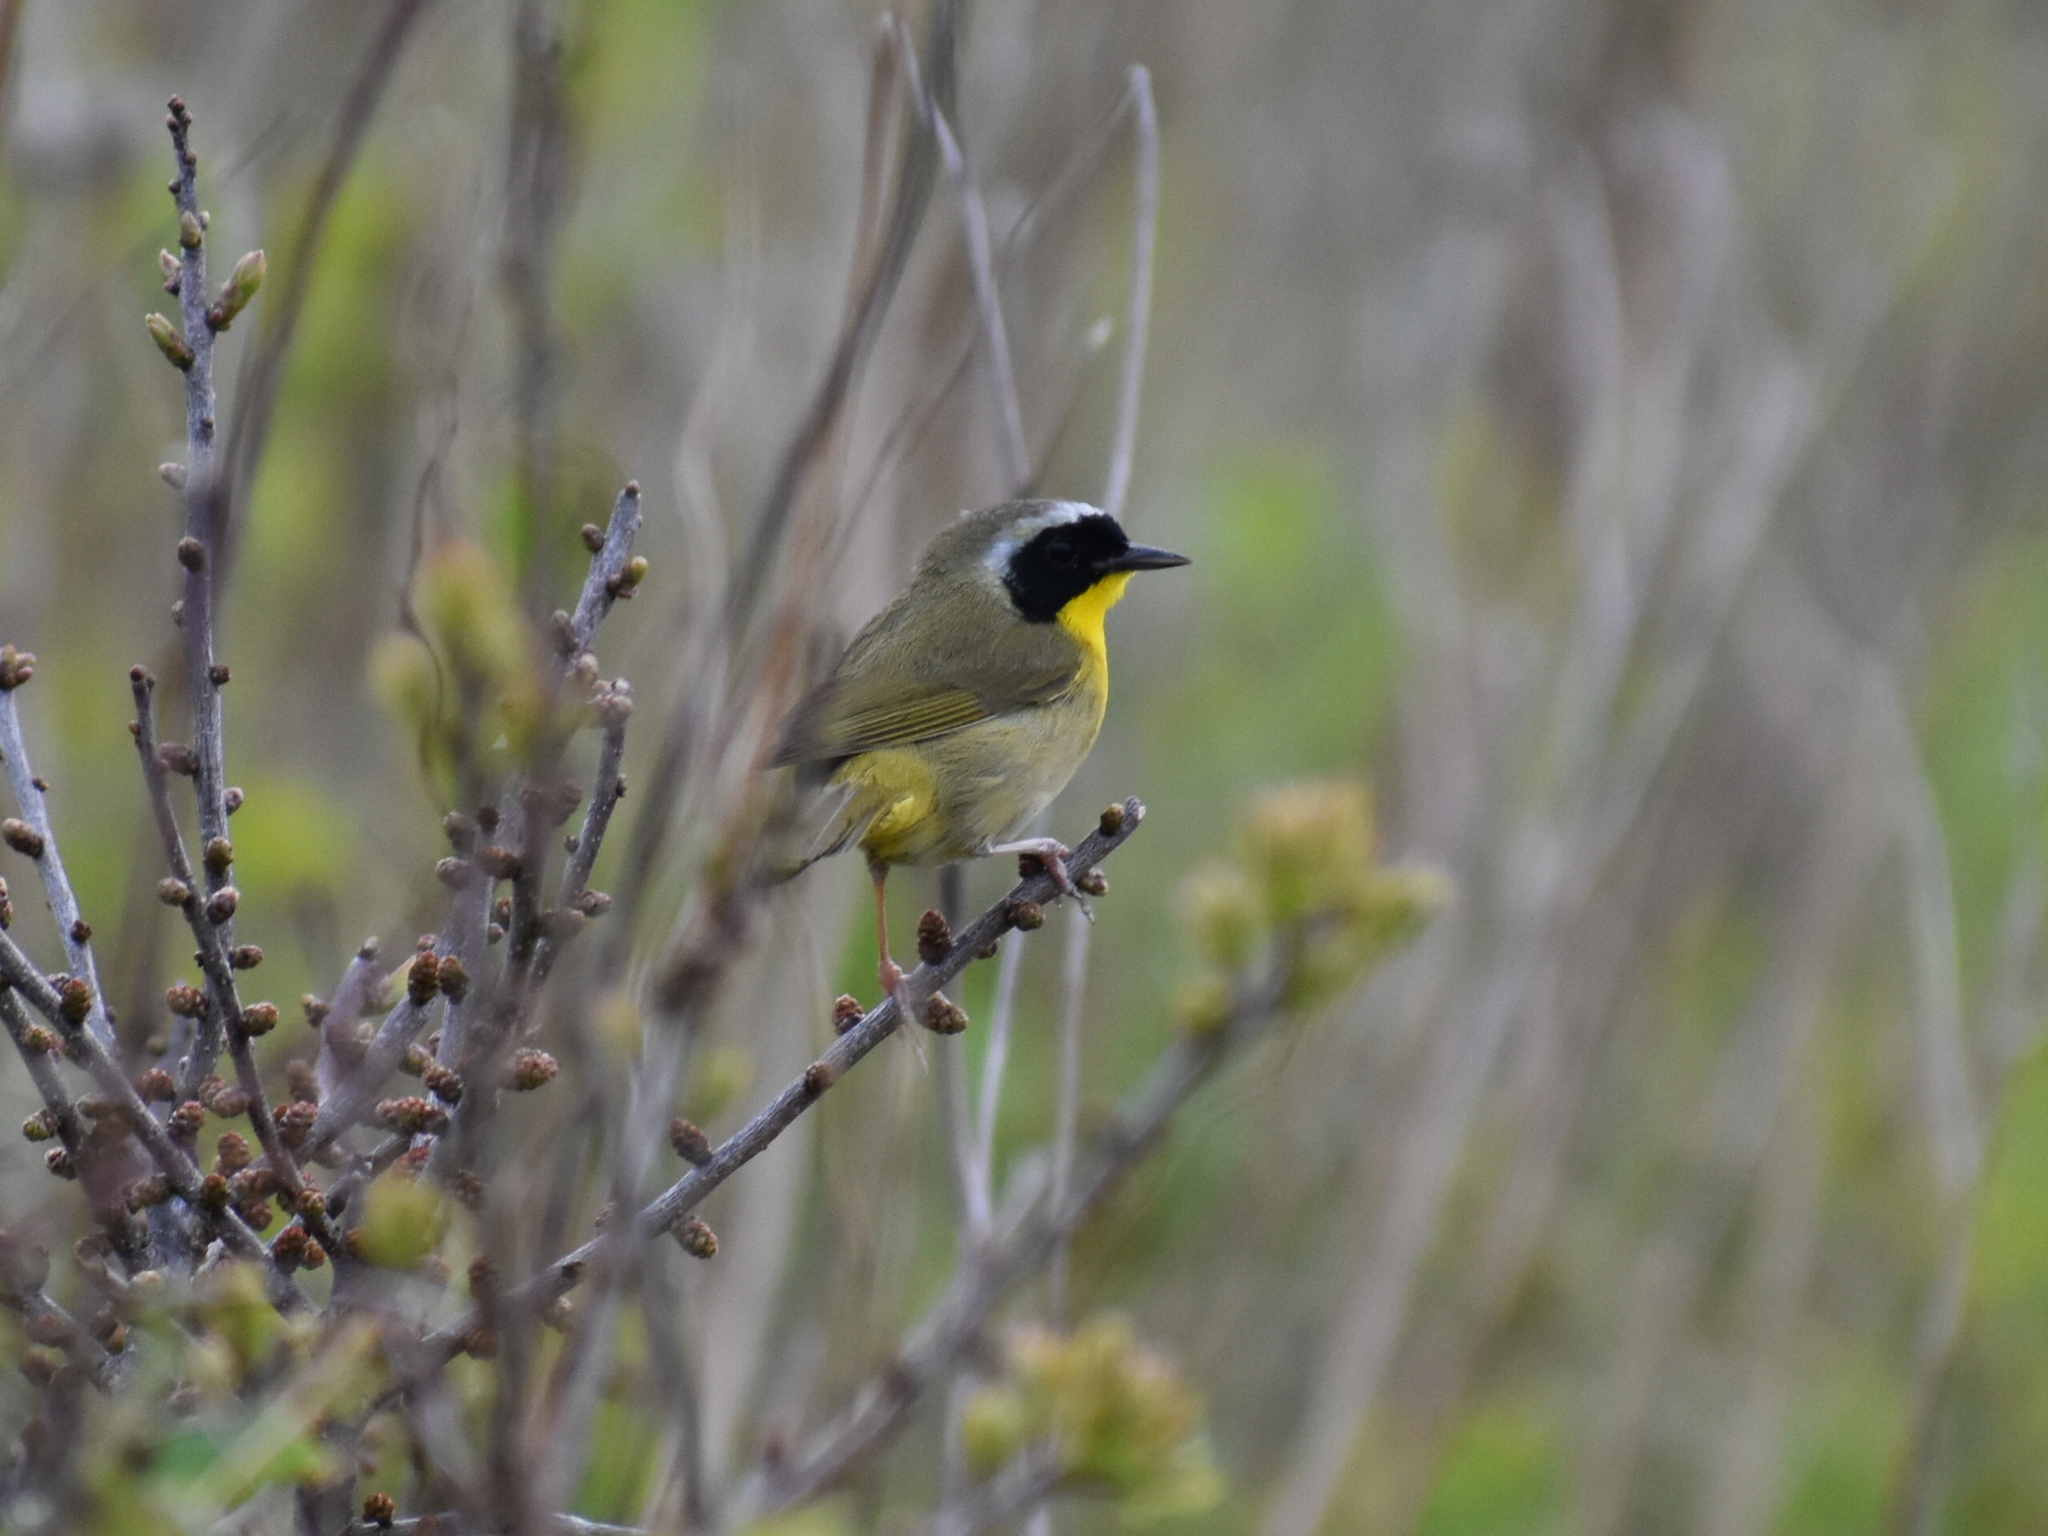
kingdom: Animalia
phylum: Chordata
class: Aves
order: Passeriformes
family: Parulidae
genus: Geothlypis
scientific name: Geothlypis trichas
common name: Common yellowthroat
